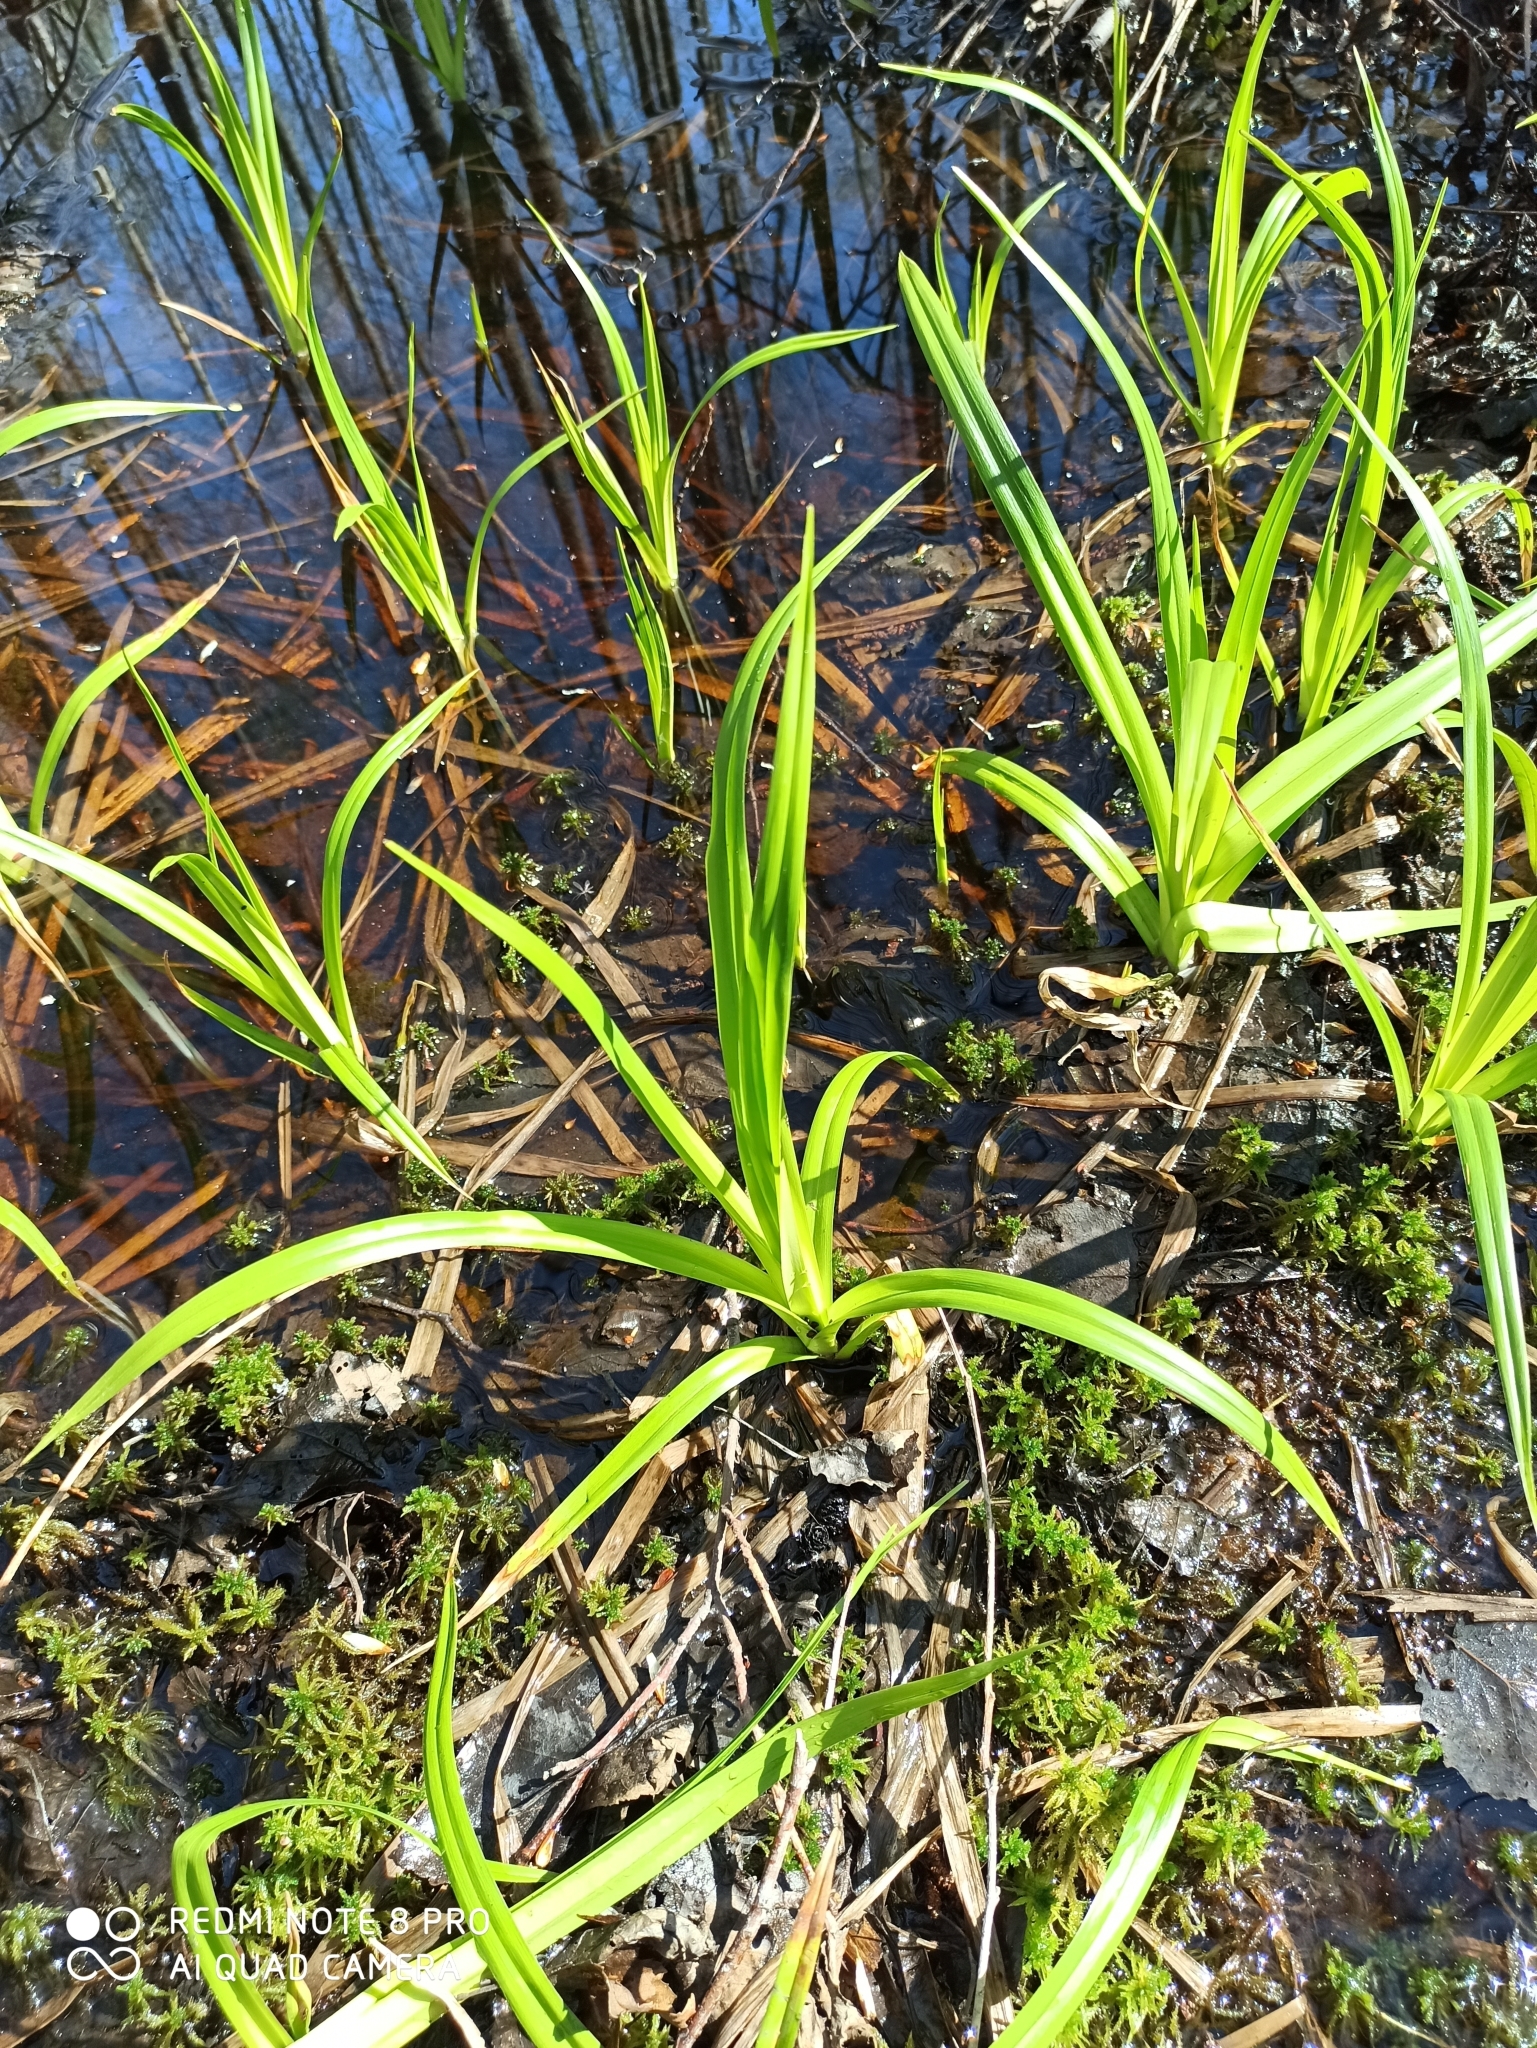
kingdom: Plantae
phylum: Tracheophyta
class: Liliopsida
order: Poales
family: Cyperaceae
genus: Scirpus
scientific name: Scirpus sylvaticus
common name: Wood club-rush
